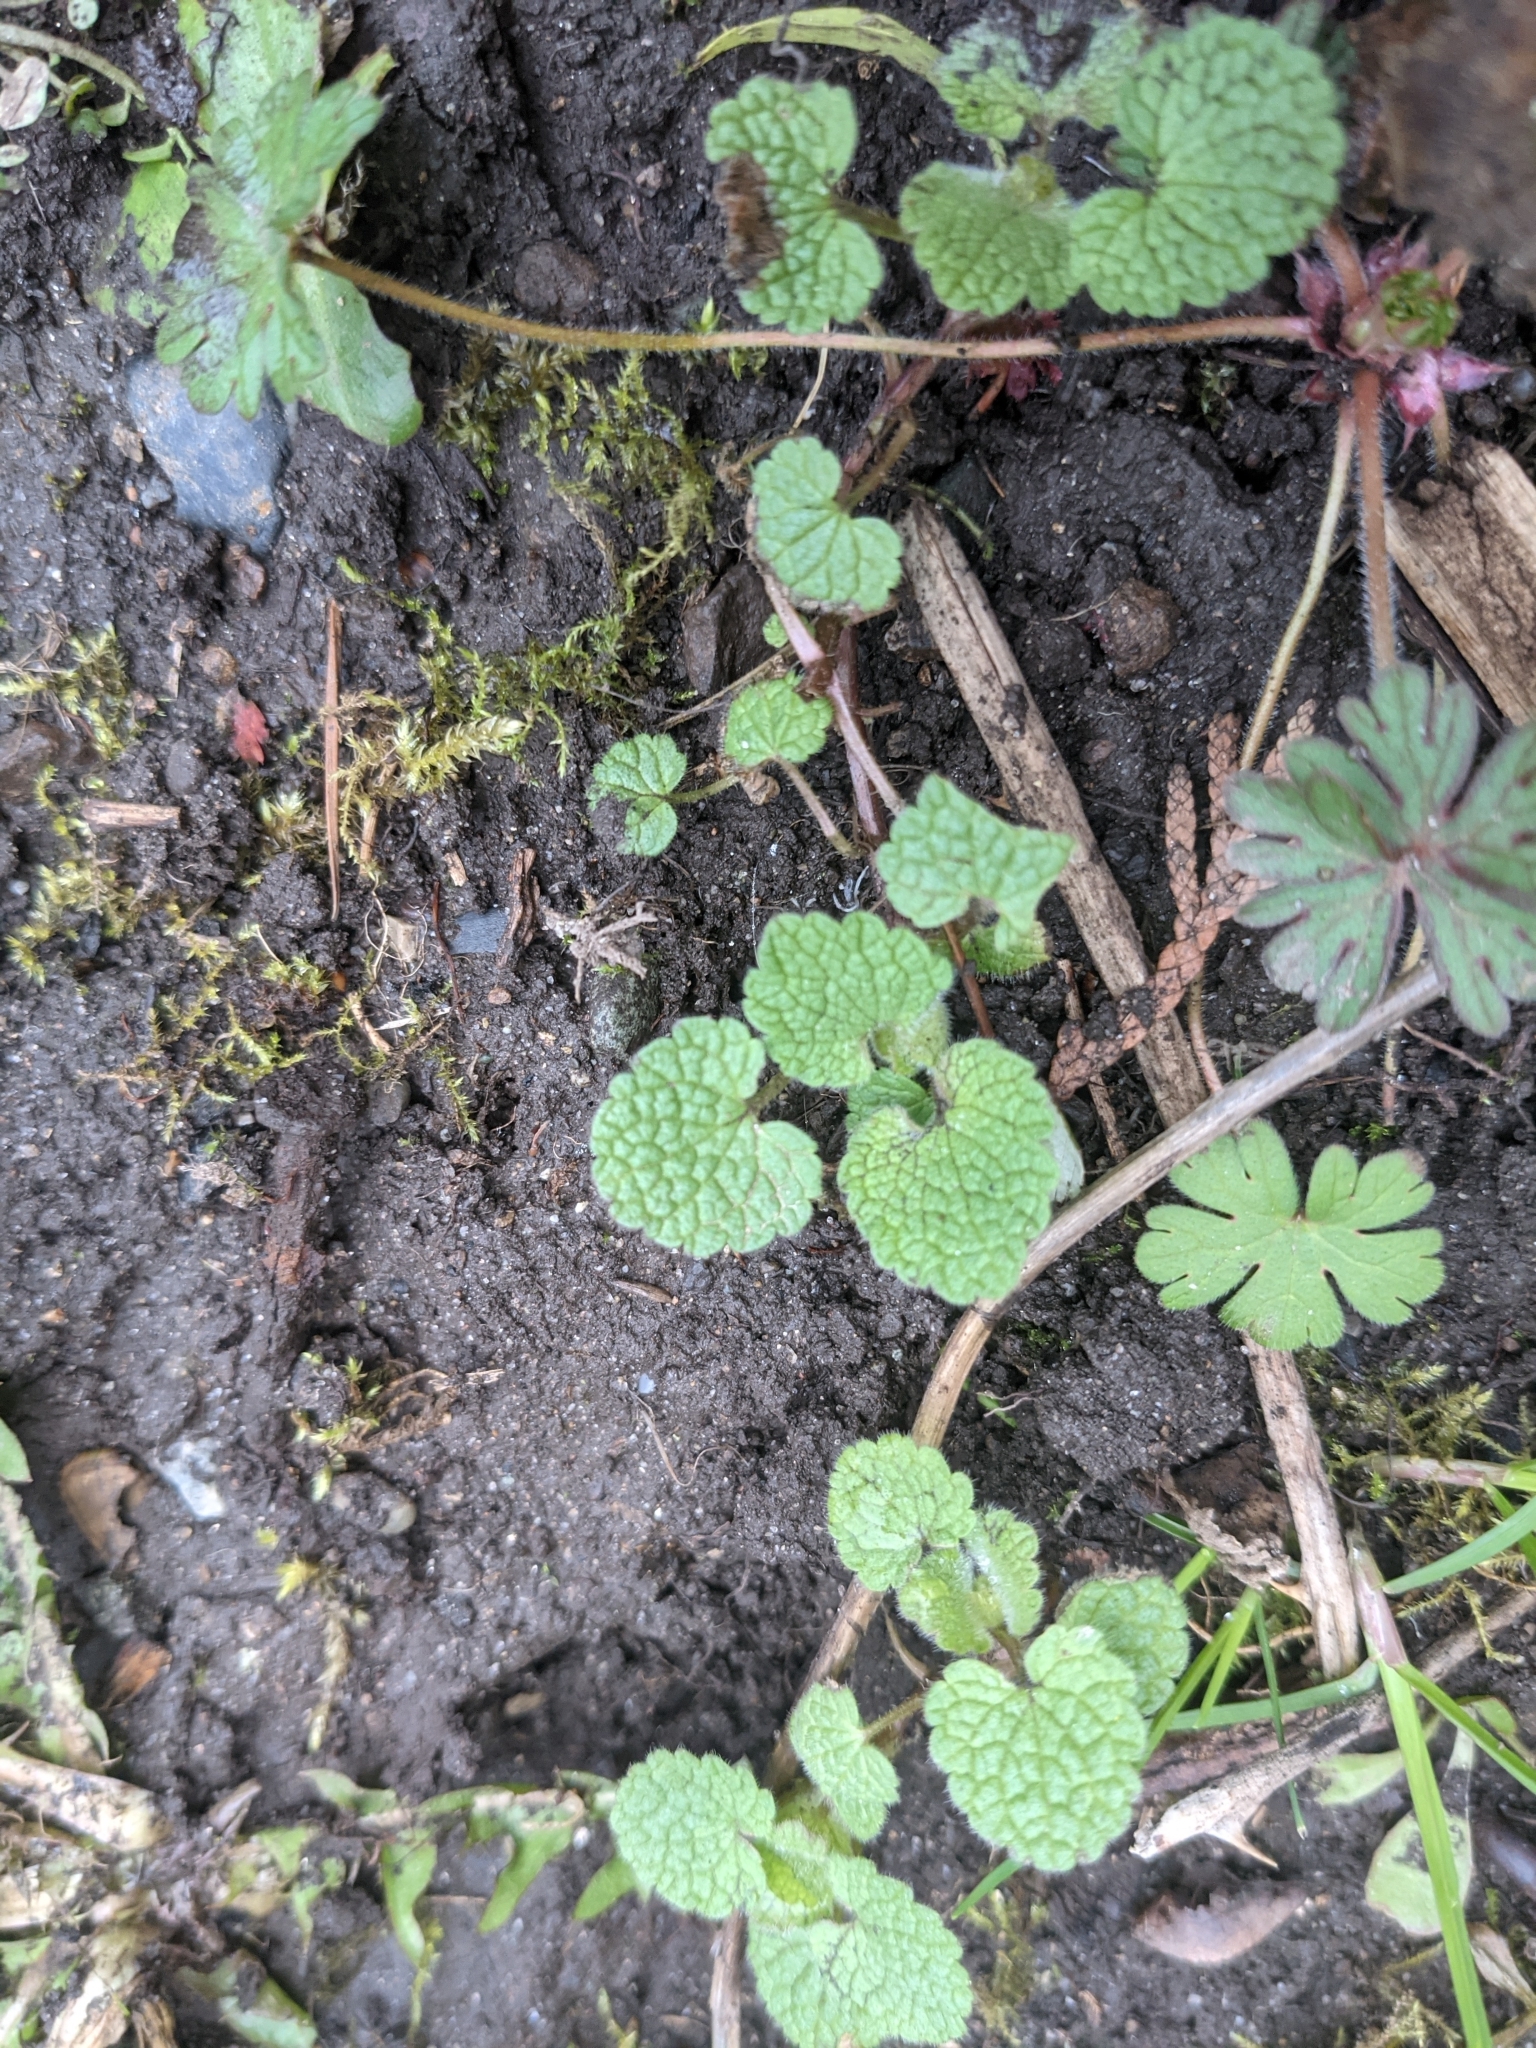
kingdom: Plantae
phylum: Tracheophyta
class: Magnoliopsida
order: Lamiales
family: Lamiaceae
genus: Lamium
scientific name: Lamium purpureum
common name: Red dead-nettle
